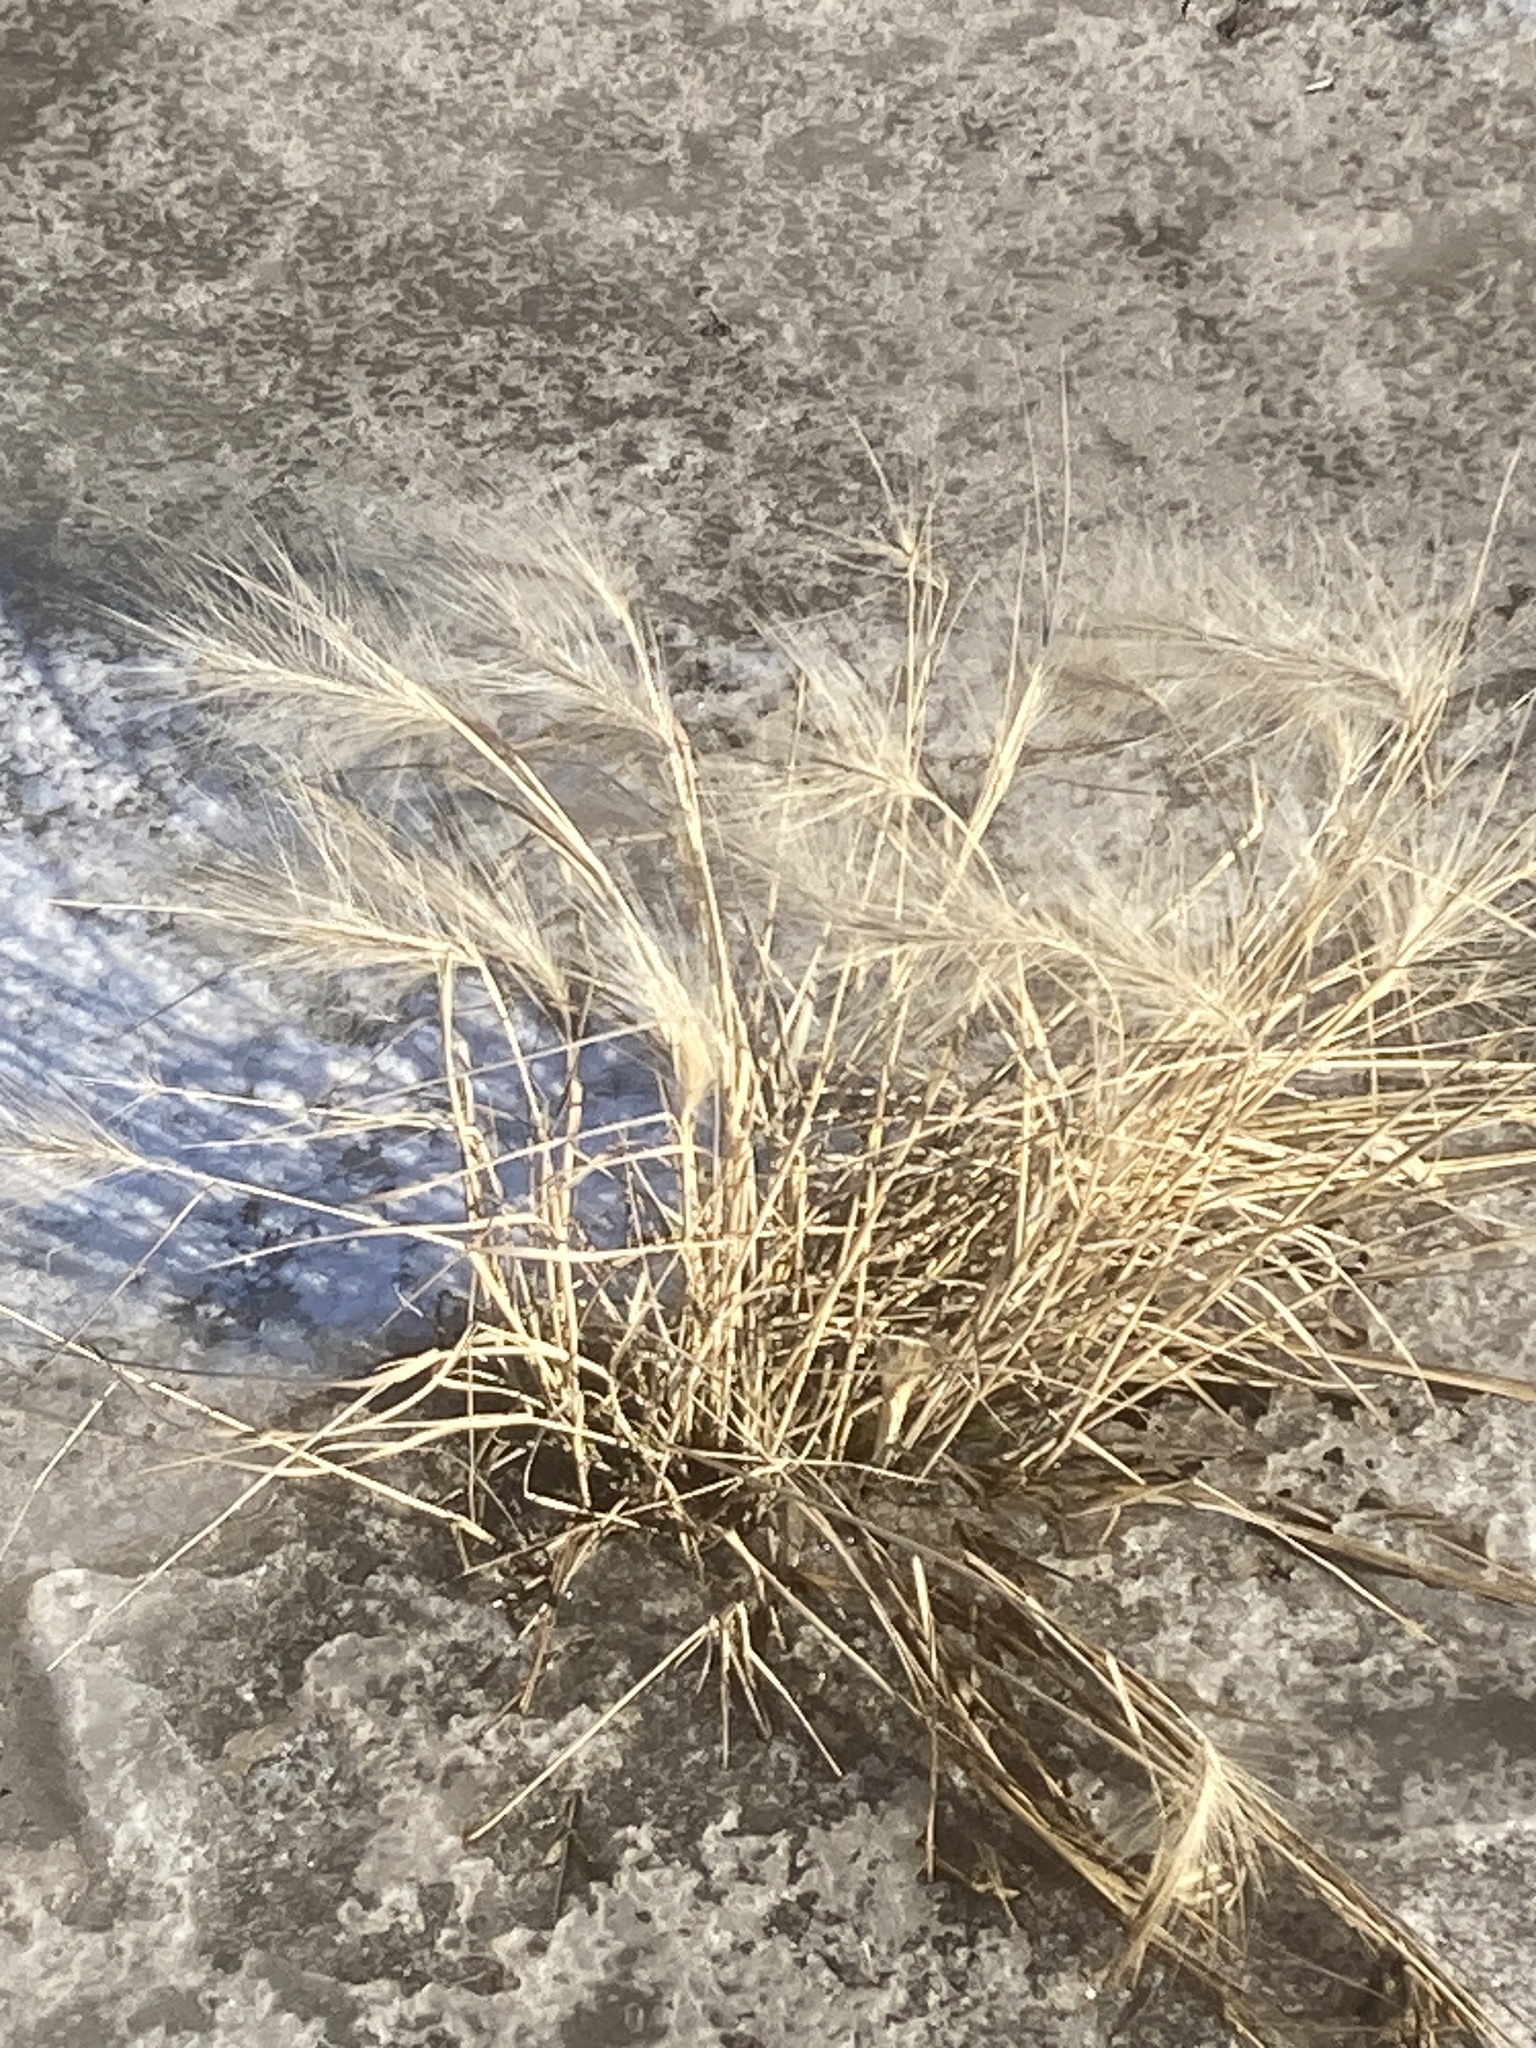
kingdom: Plantae
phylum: Tracheophyta
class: Liliopsida
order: Poales
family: Poaceae
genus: Hordeum
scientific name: Hordeum jubatum
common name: Foxtail barley
